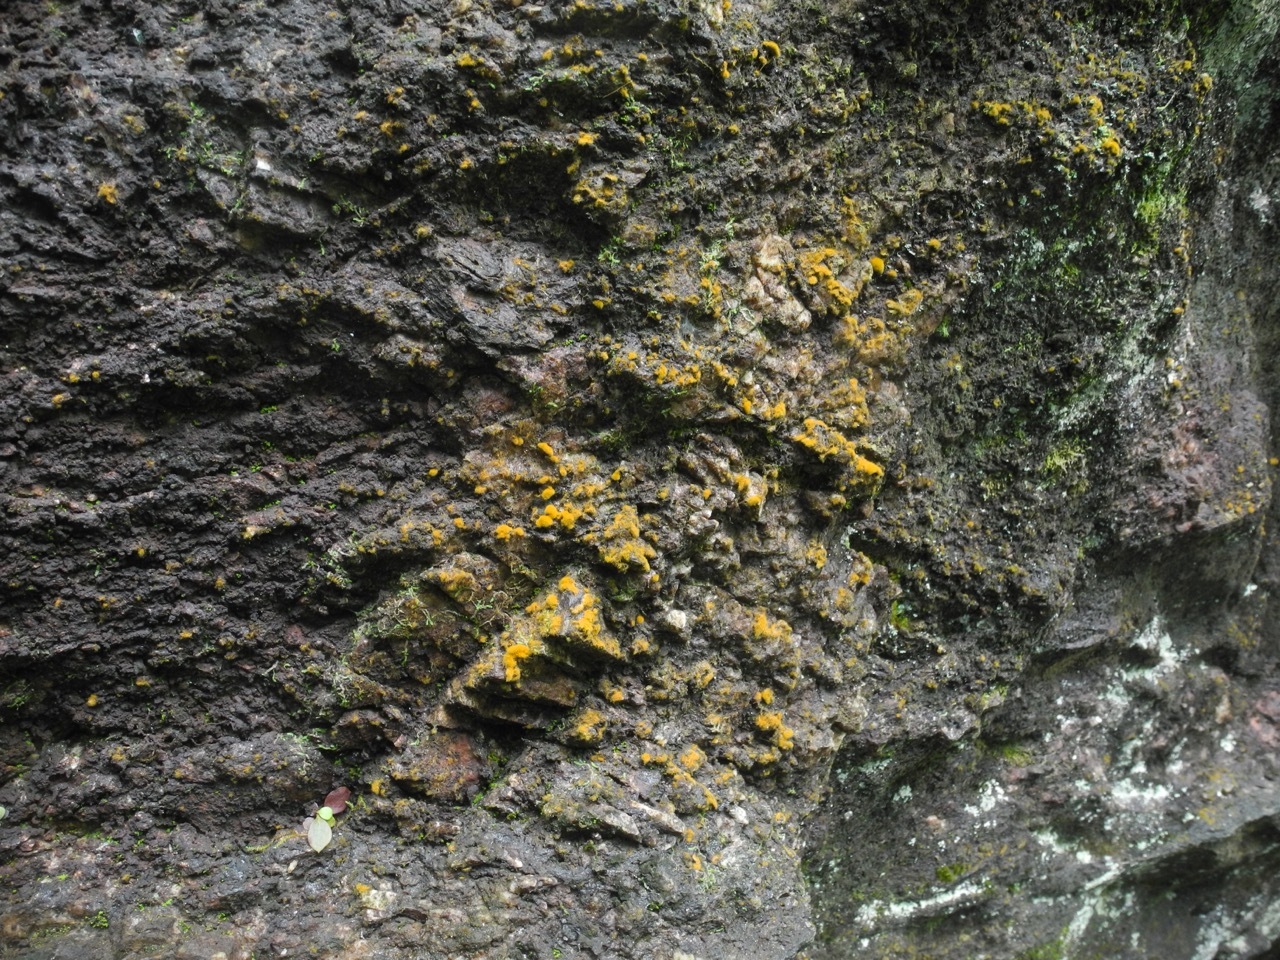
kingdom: Plantae
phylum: Chlorophyta
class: Ulvophyceae
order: Trentepohliales
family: Trentepohliaceae
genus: Trentepohlia
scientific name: Trentepohlia aurea
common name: Orange rock hair
